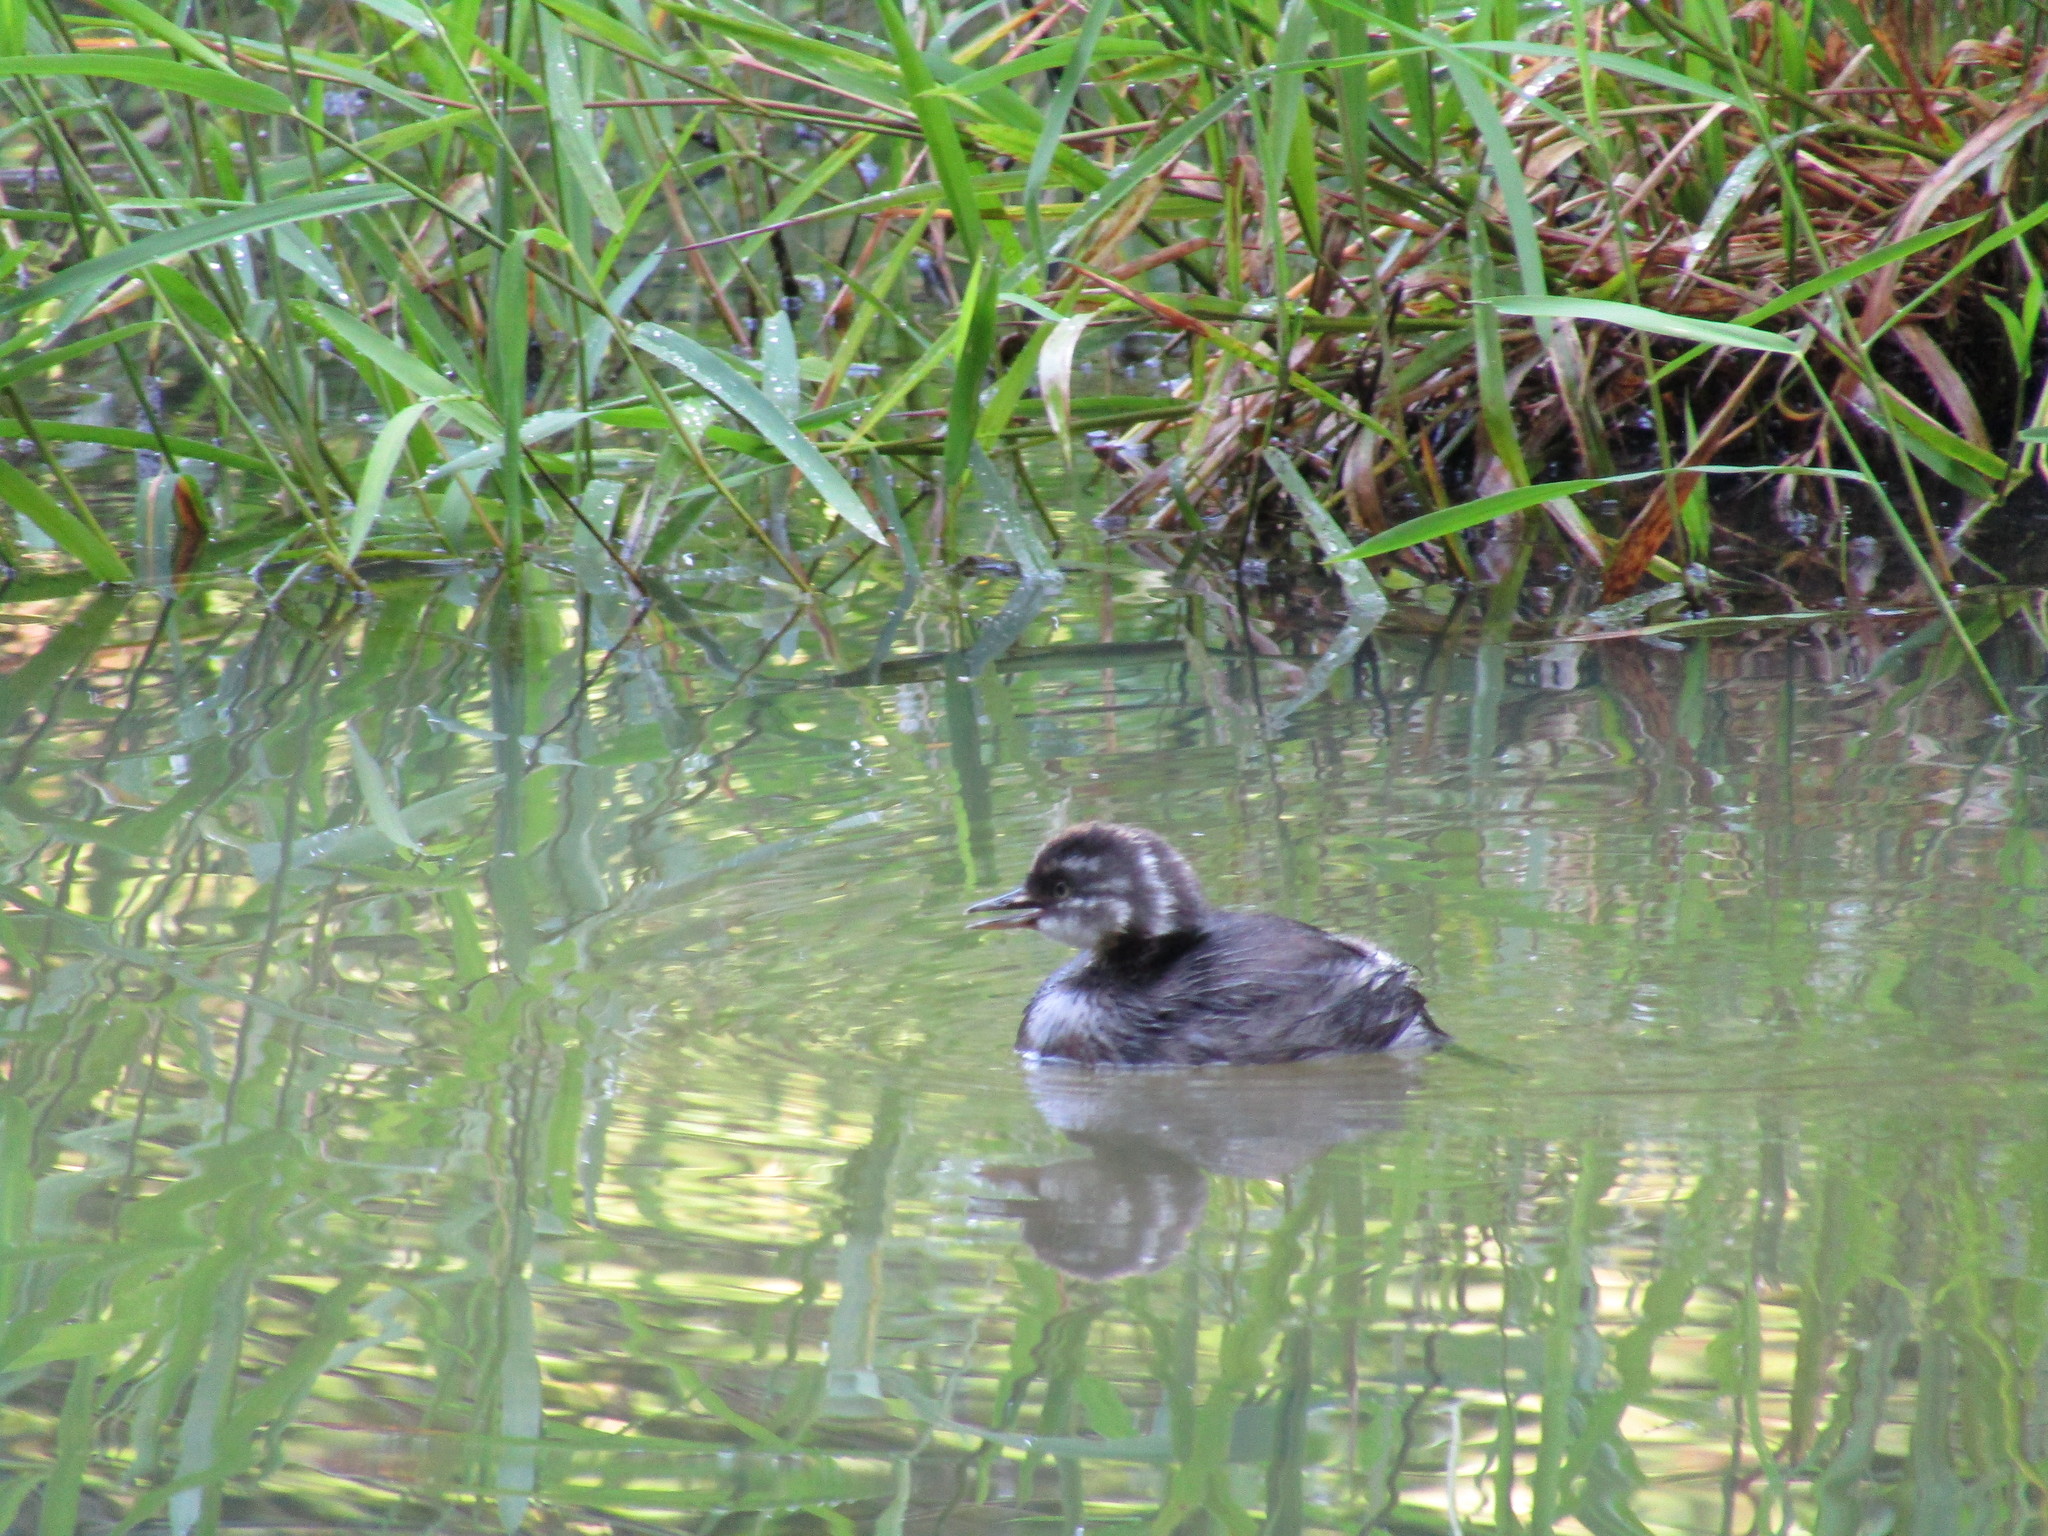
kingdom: Animalia
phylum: Chordata
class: Aves
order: Podicipediformes
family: Podicipedidae
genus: Tachybaptus
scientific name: Tachybaptus dominicus
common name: Least grebe
